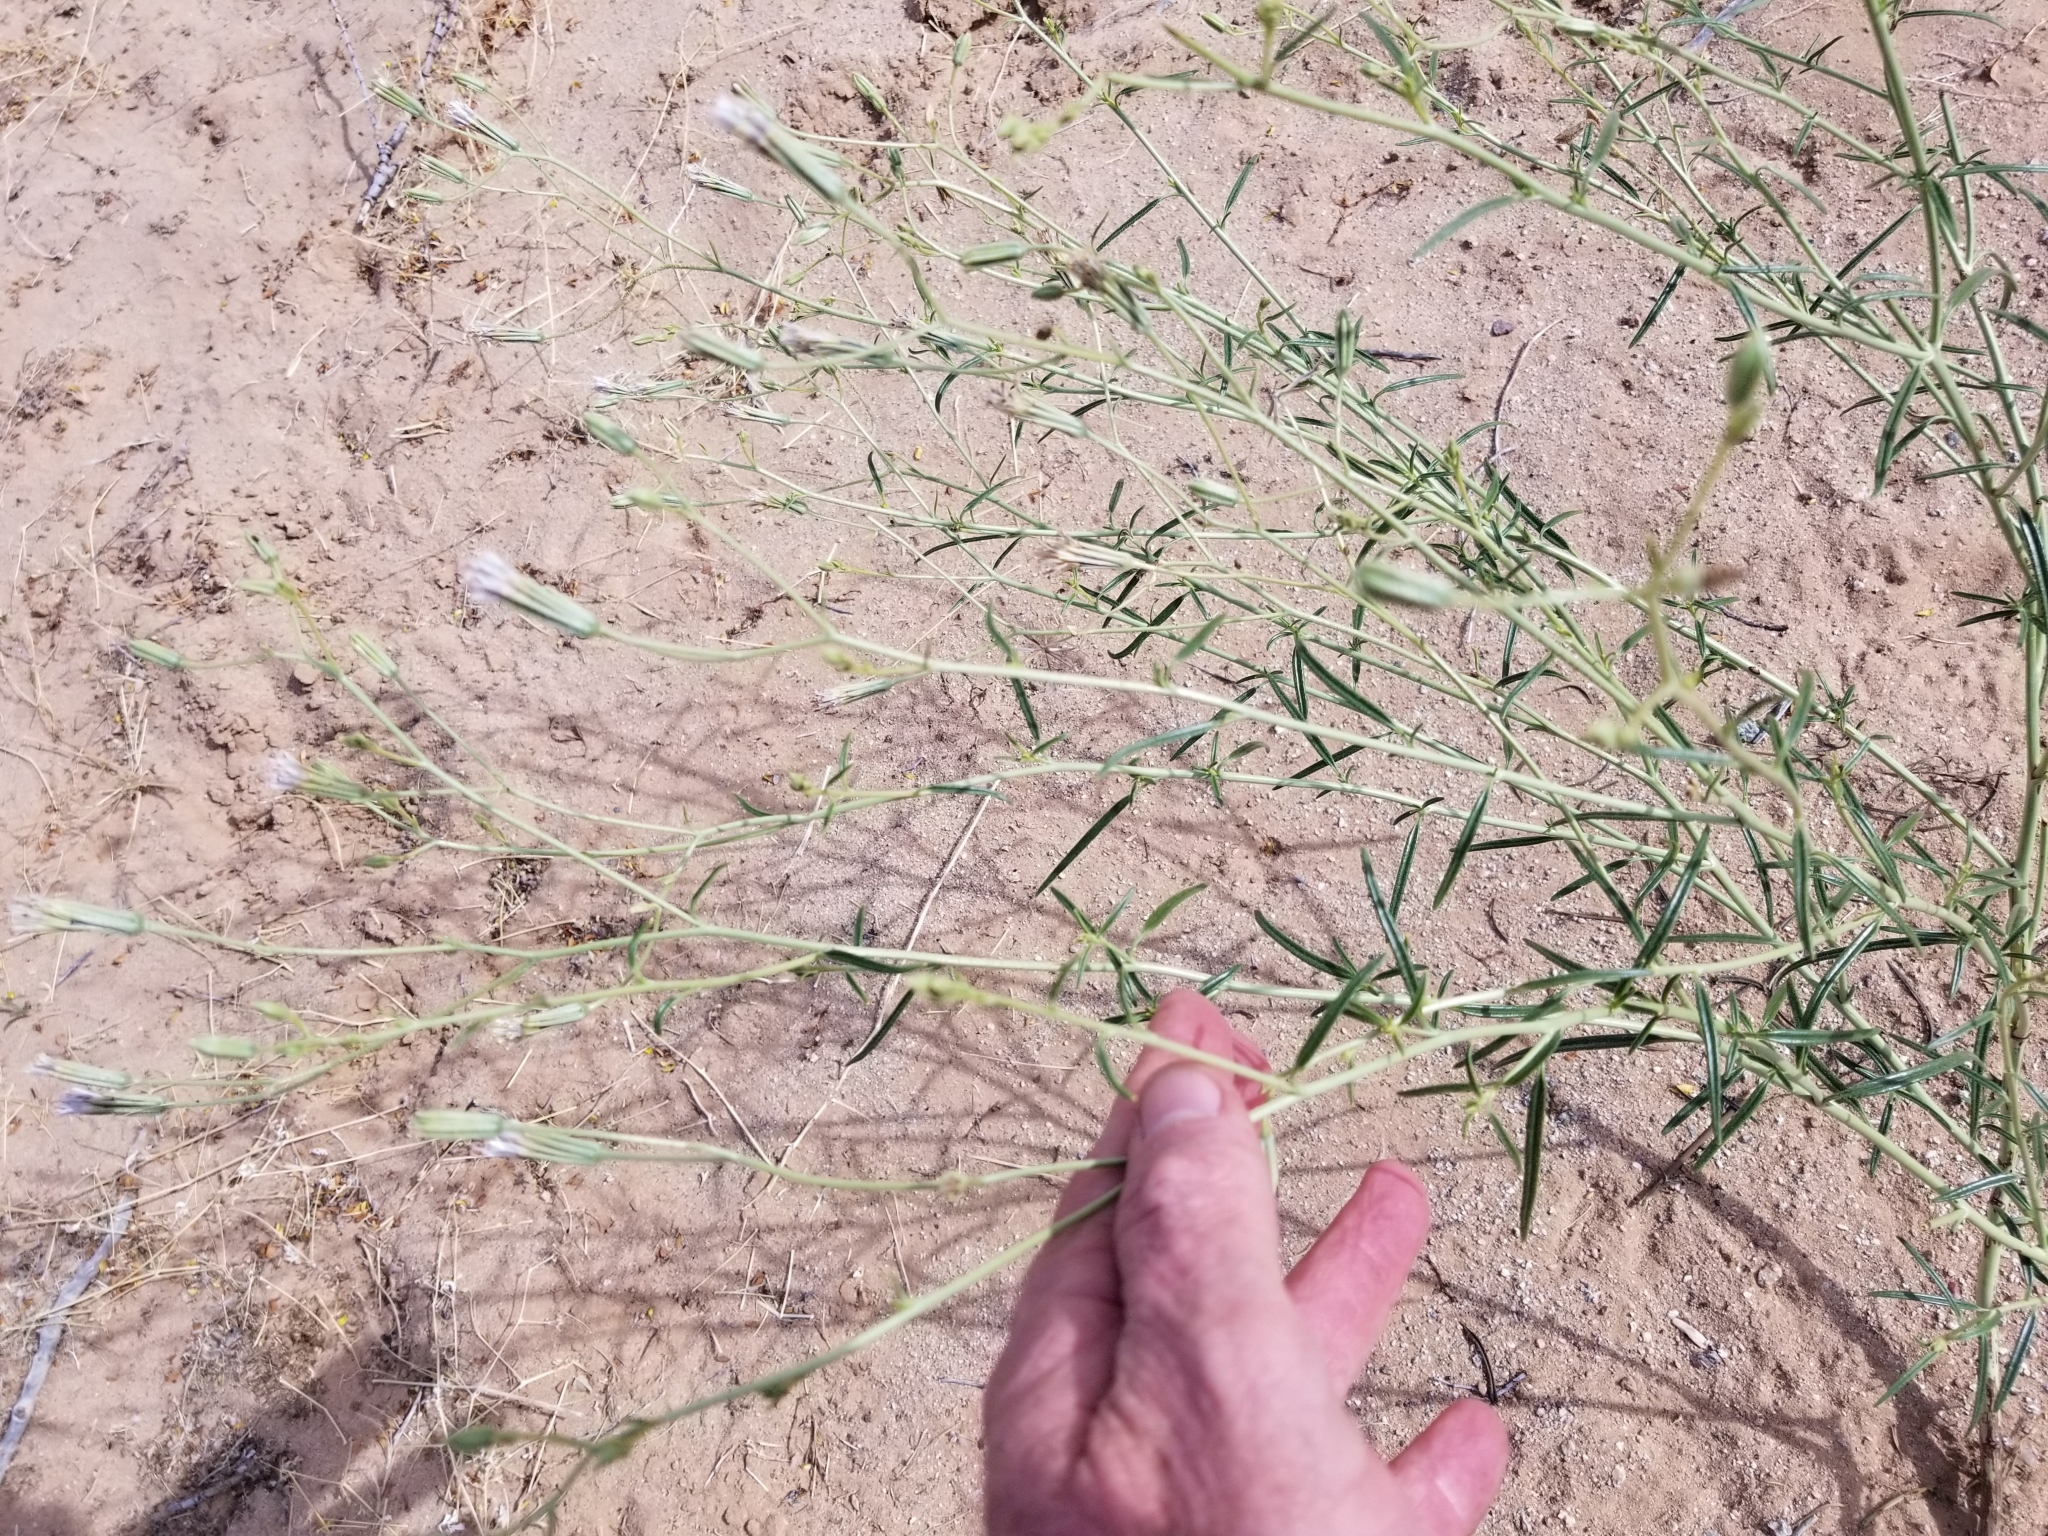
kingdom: Plantae
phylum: Tracheophyta
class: Magnoliopsida
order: Asterales
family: Asteraceae
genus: Palafoxia
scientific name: Palafoxia arida
